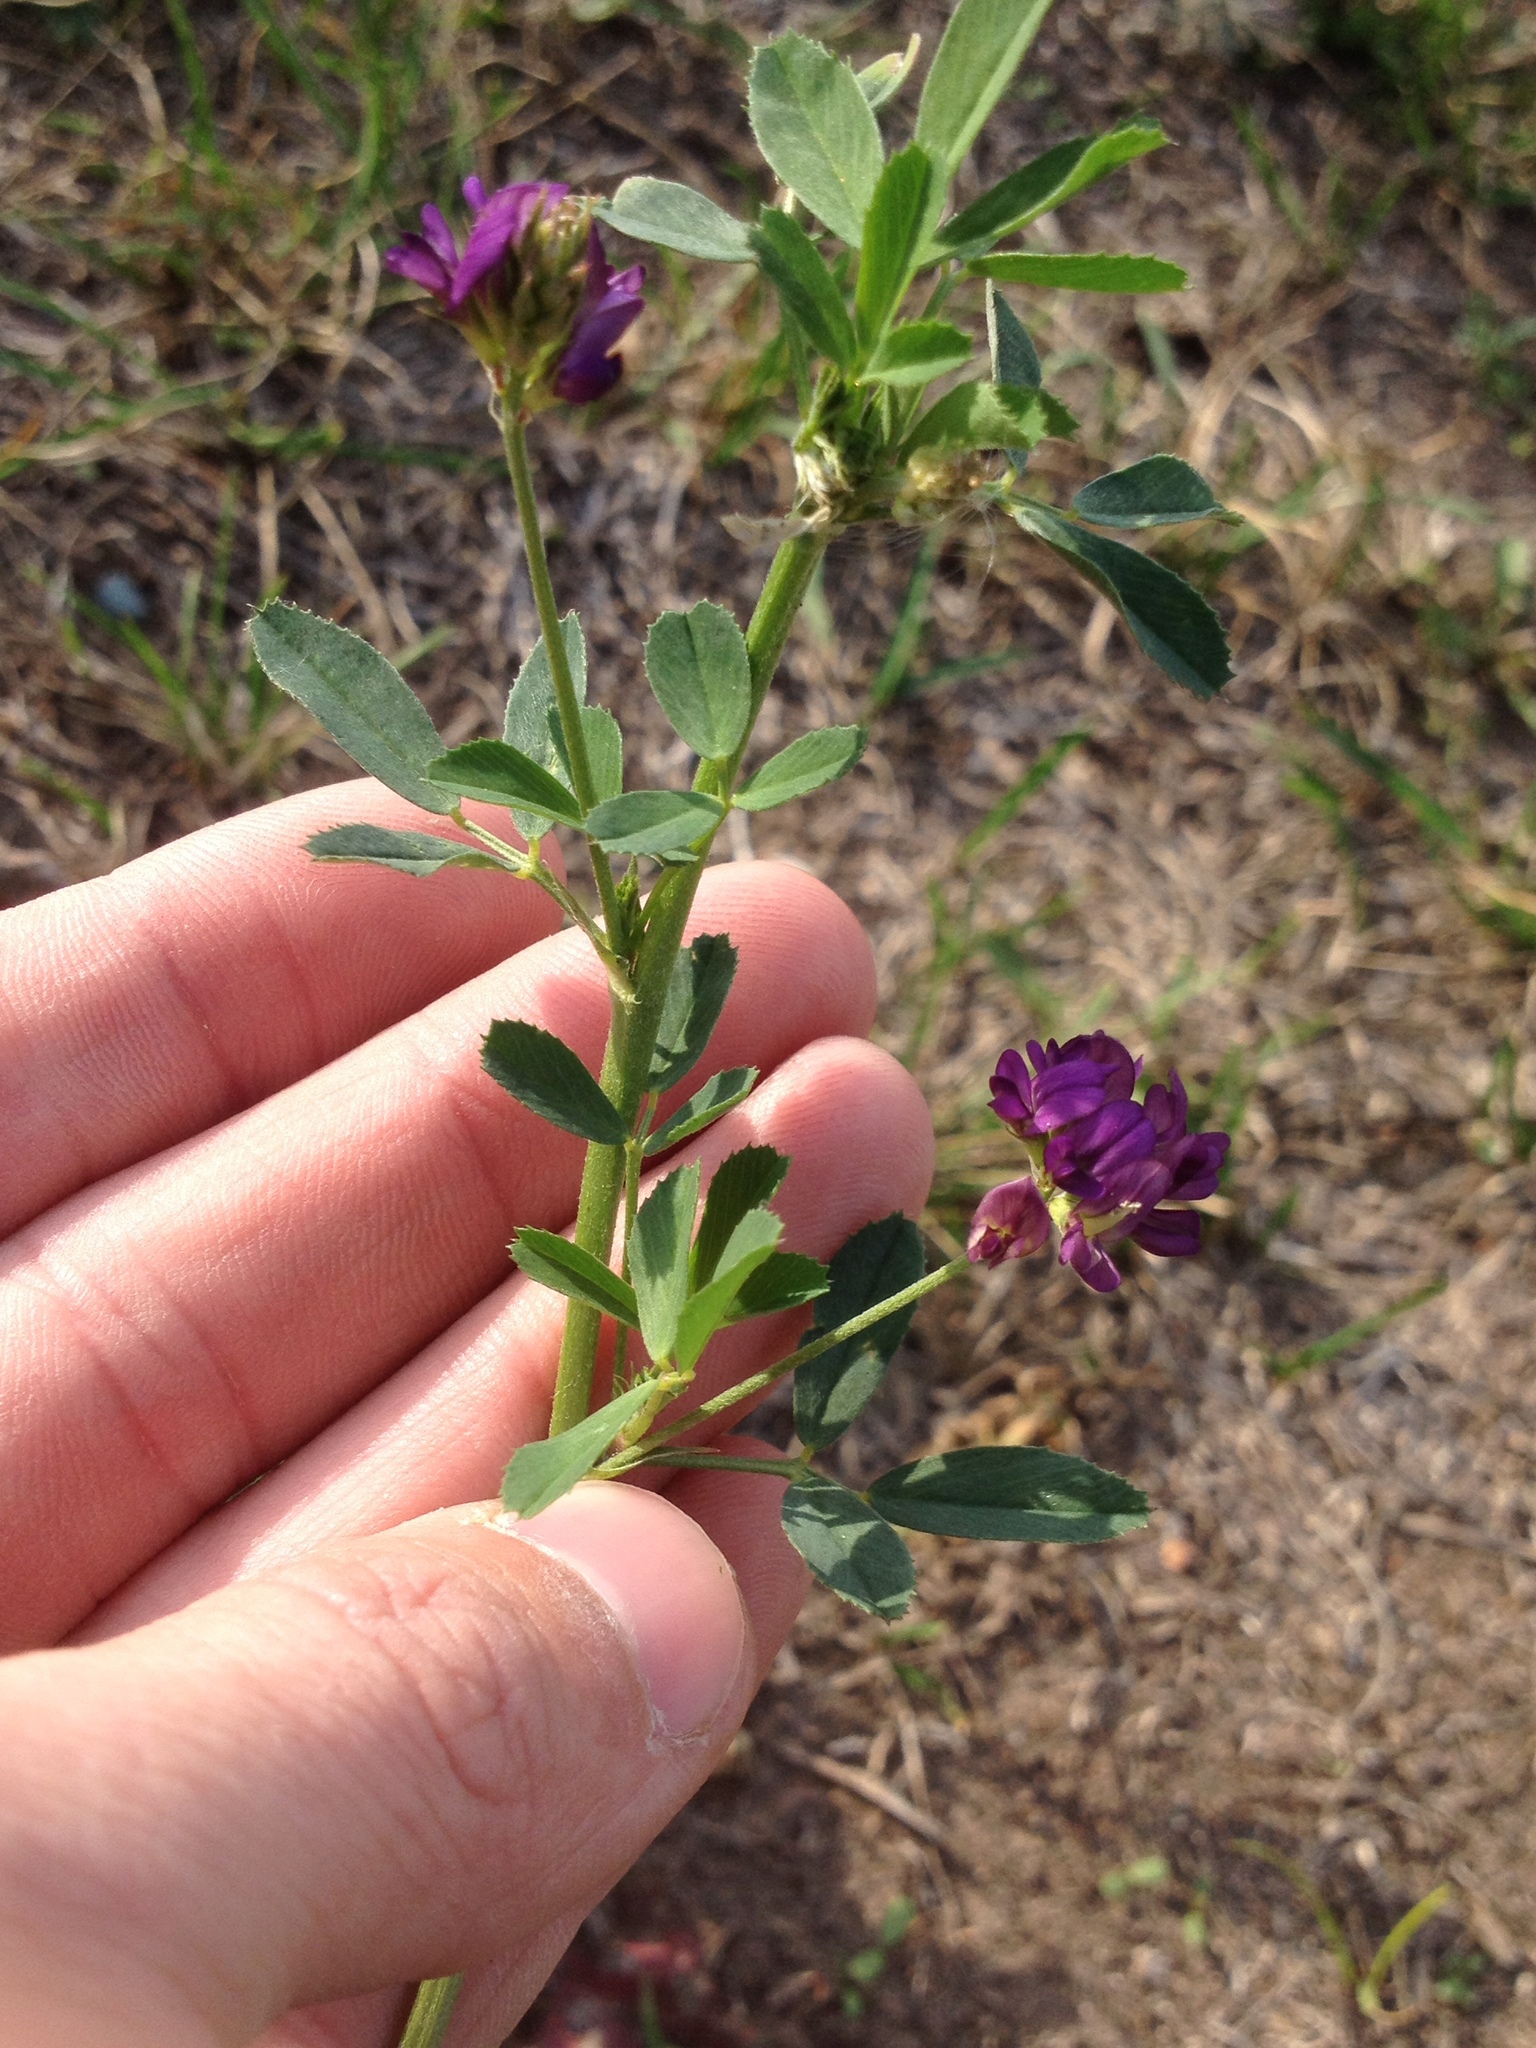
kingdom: Plantae
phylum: Tracheophyta
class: Magnoliopsida
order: Fabales
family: Fabaceae
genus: Medicago
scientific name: Medicago sativa
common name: Alfalfa
